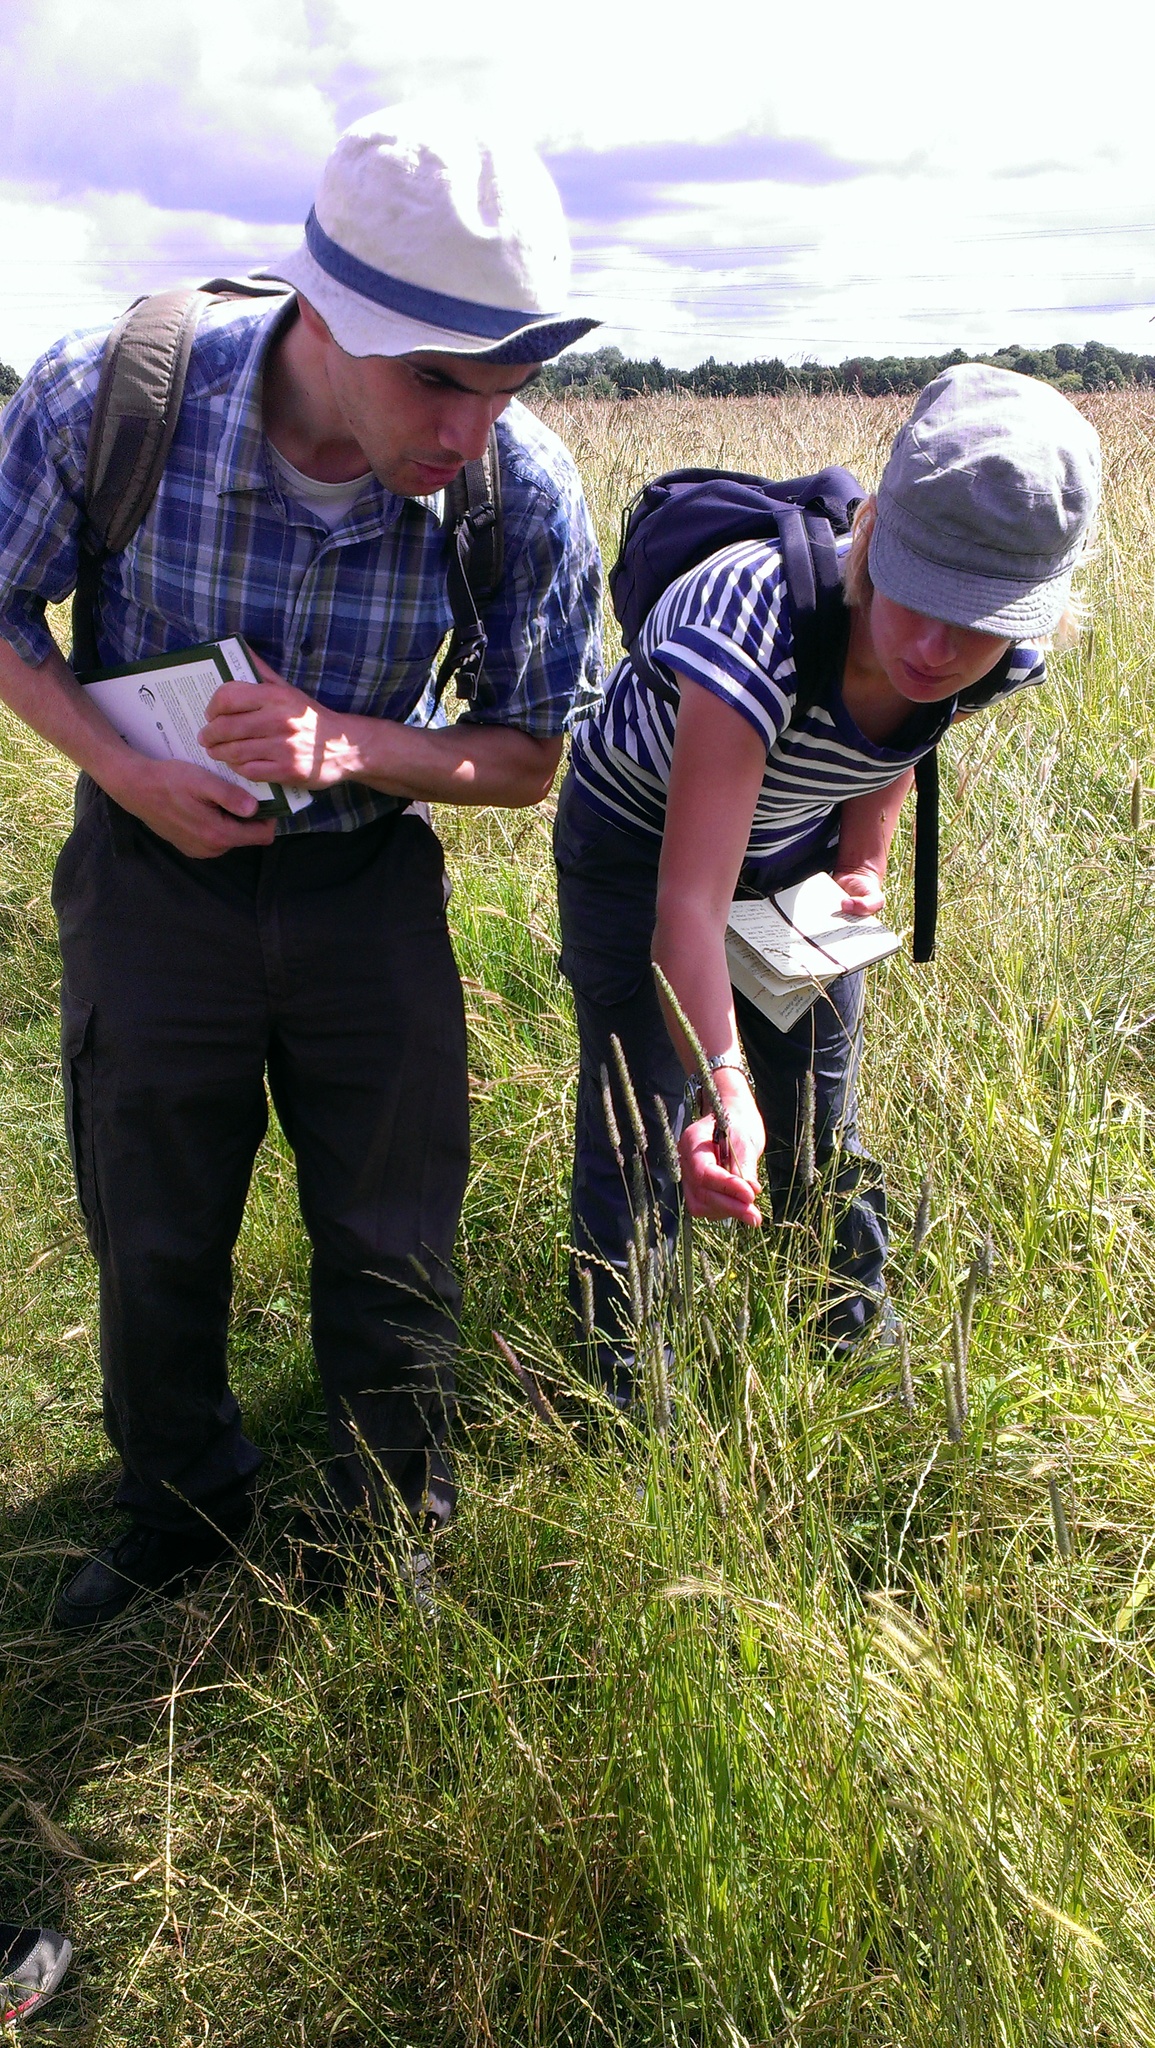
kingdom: Plantae
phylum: Tracheophyta
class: Liliopsida
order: Poales
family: Poaceae
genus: Phleum
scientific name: Phleum pratense
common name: Timothy grass
